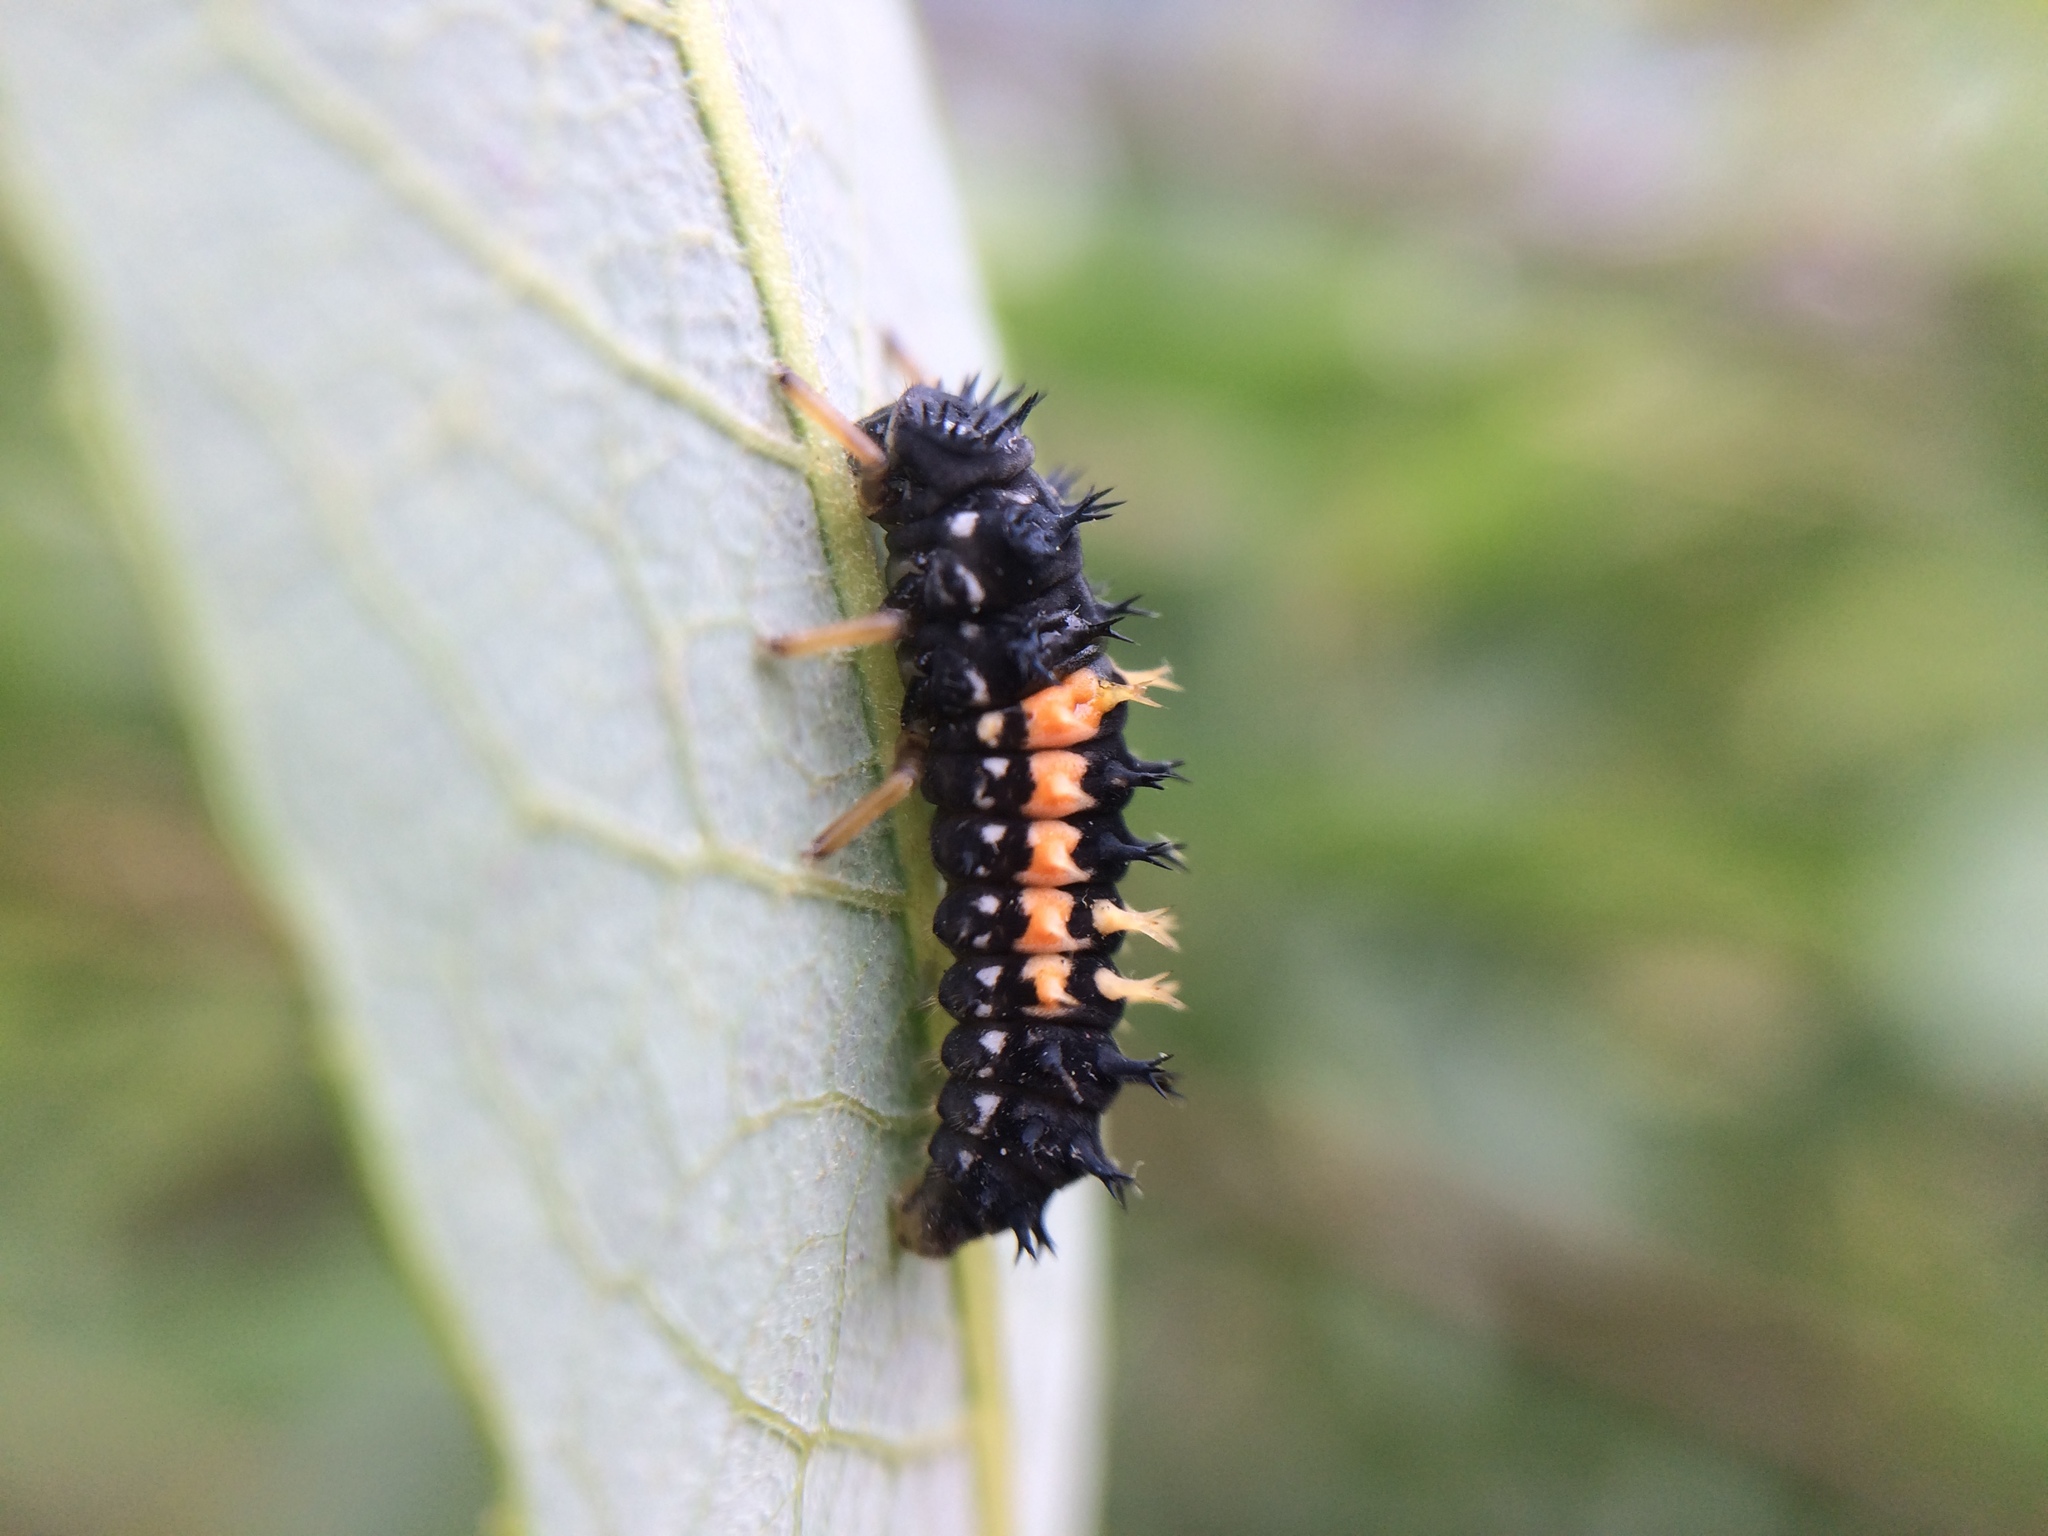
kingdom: Animalia
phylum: Arthropoda
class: Insecta
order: Coleoptera
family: Coccinellidae
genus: Harmonia
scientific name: Harmonia axyridis
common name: Harlequin ladybird
